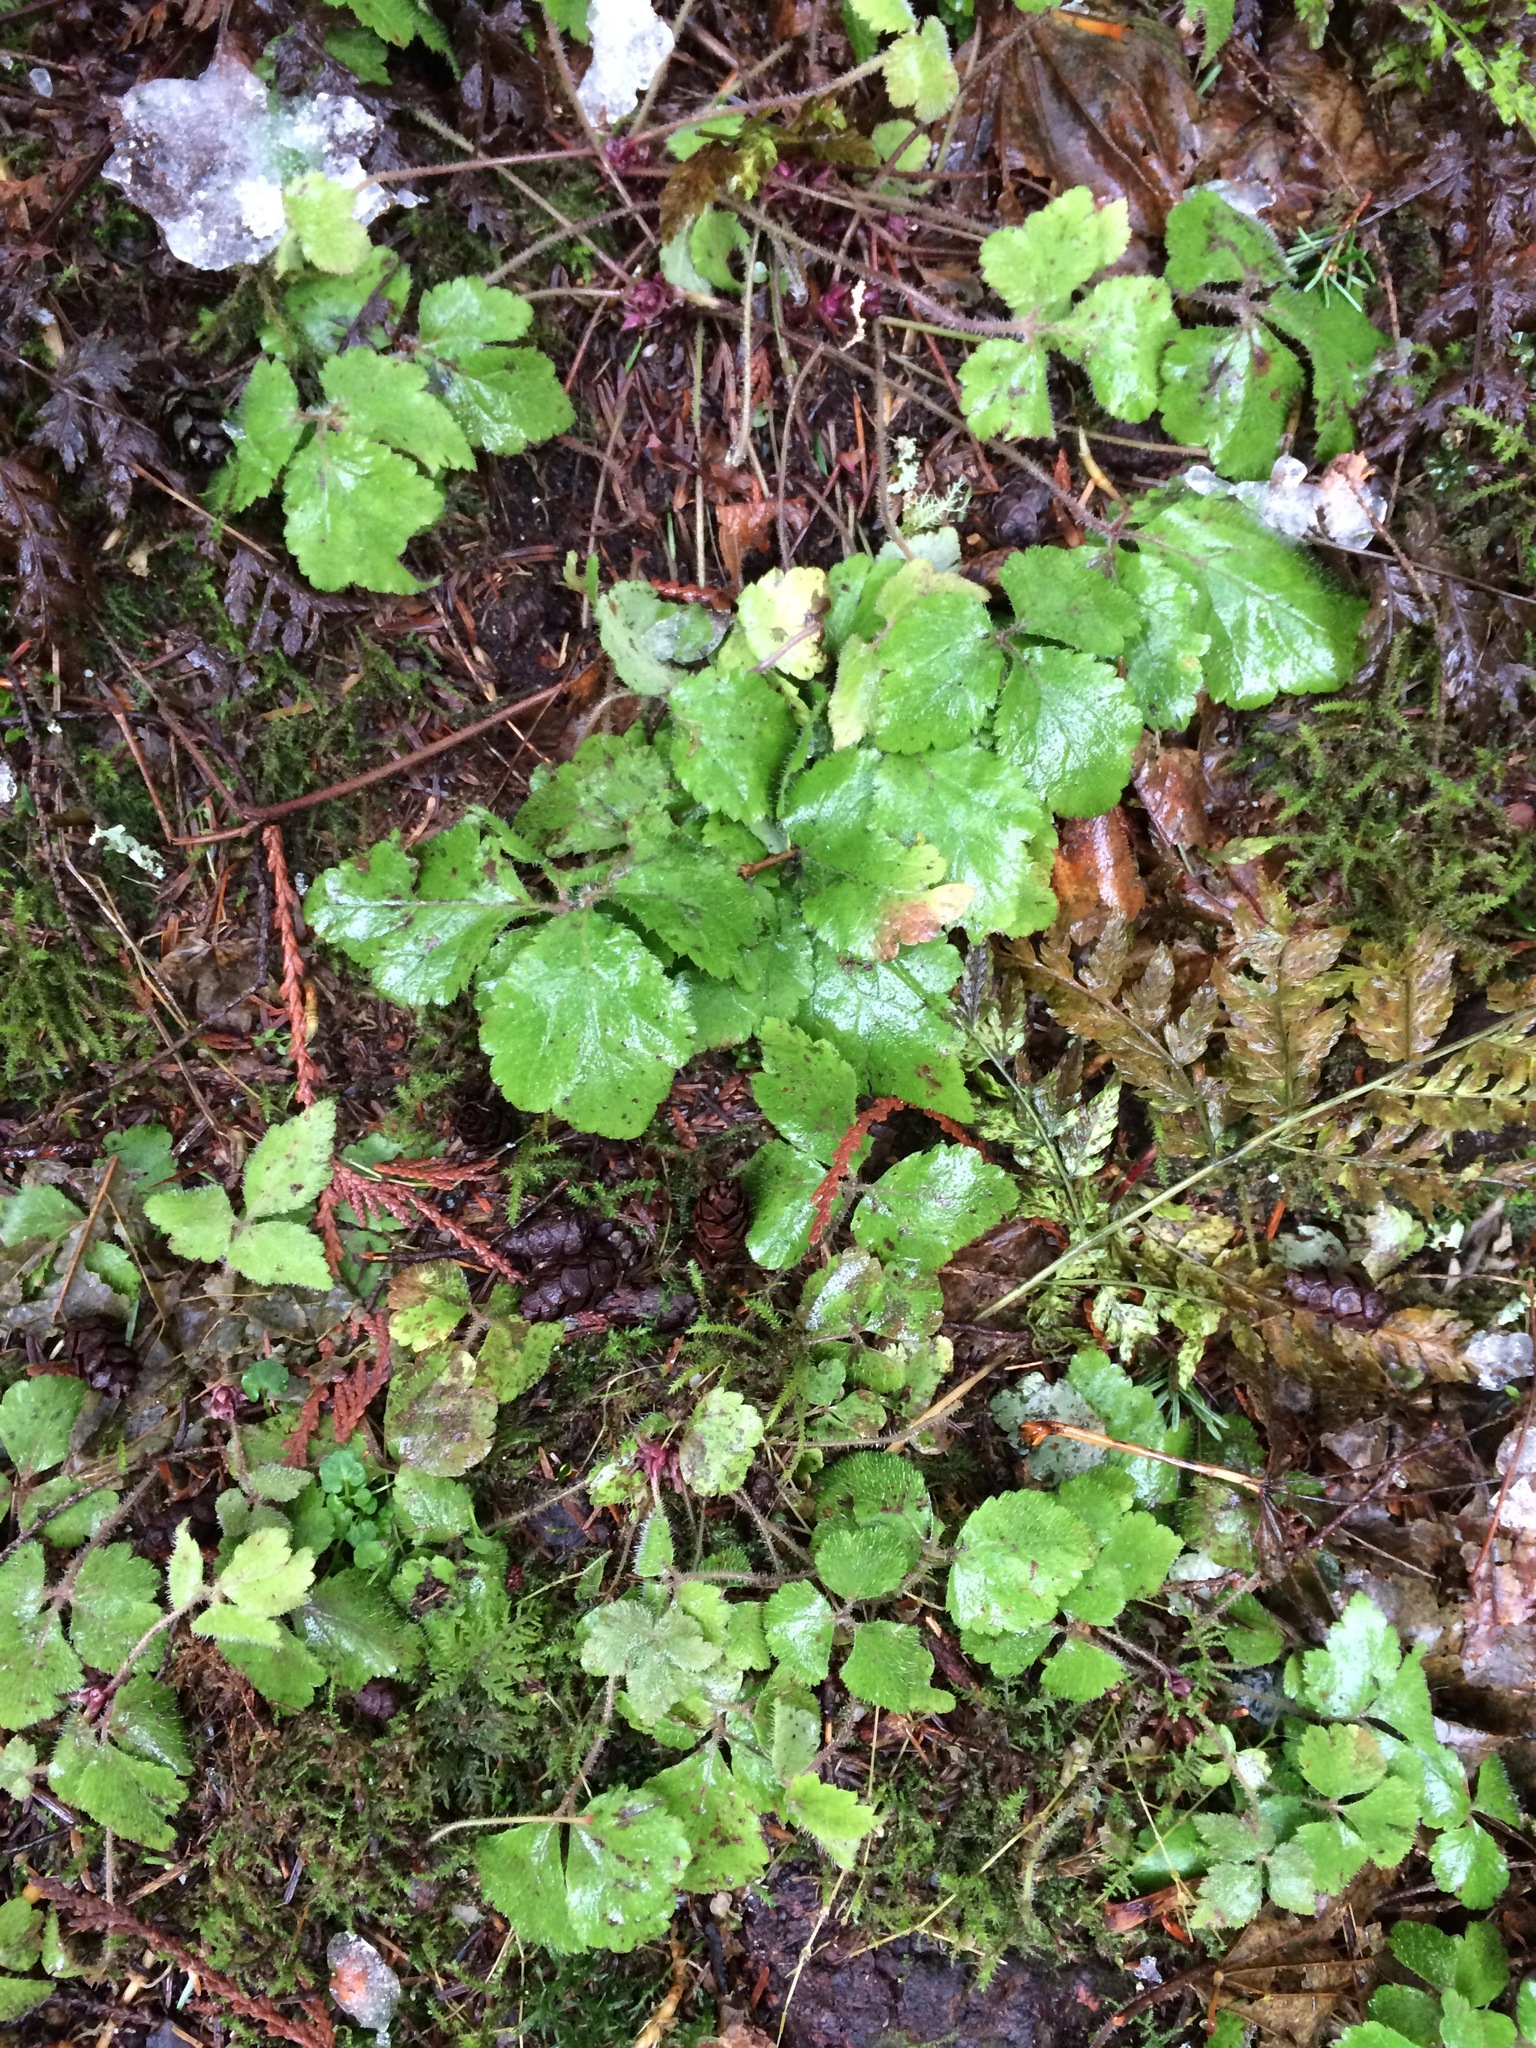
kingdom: Plantae
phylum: Tracheophyta
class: Magnoliopsida
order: Saxifragales
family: Saxifragaceae
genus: Tiarella
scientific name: Tiarella trifoliata
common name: Sugar-scoop
